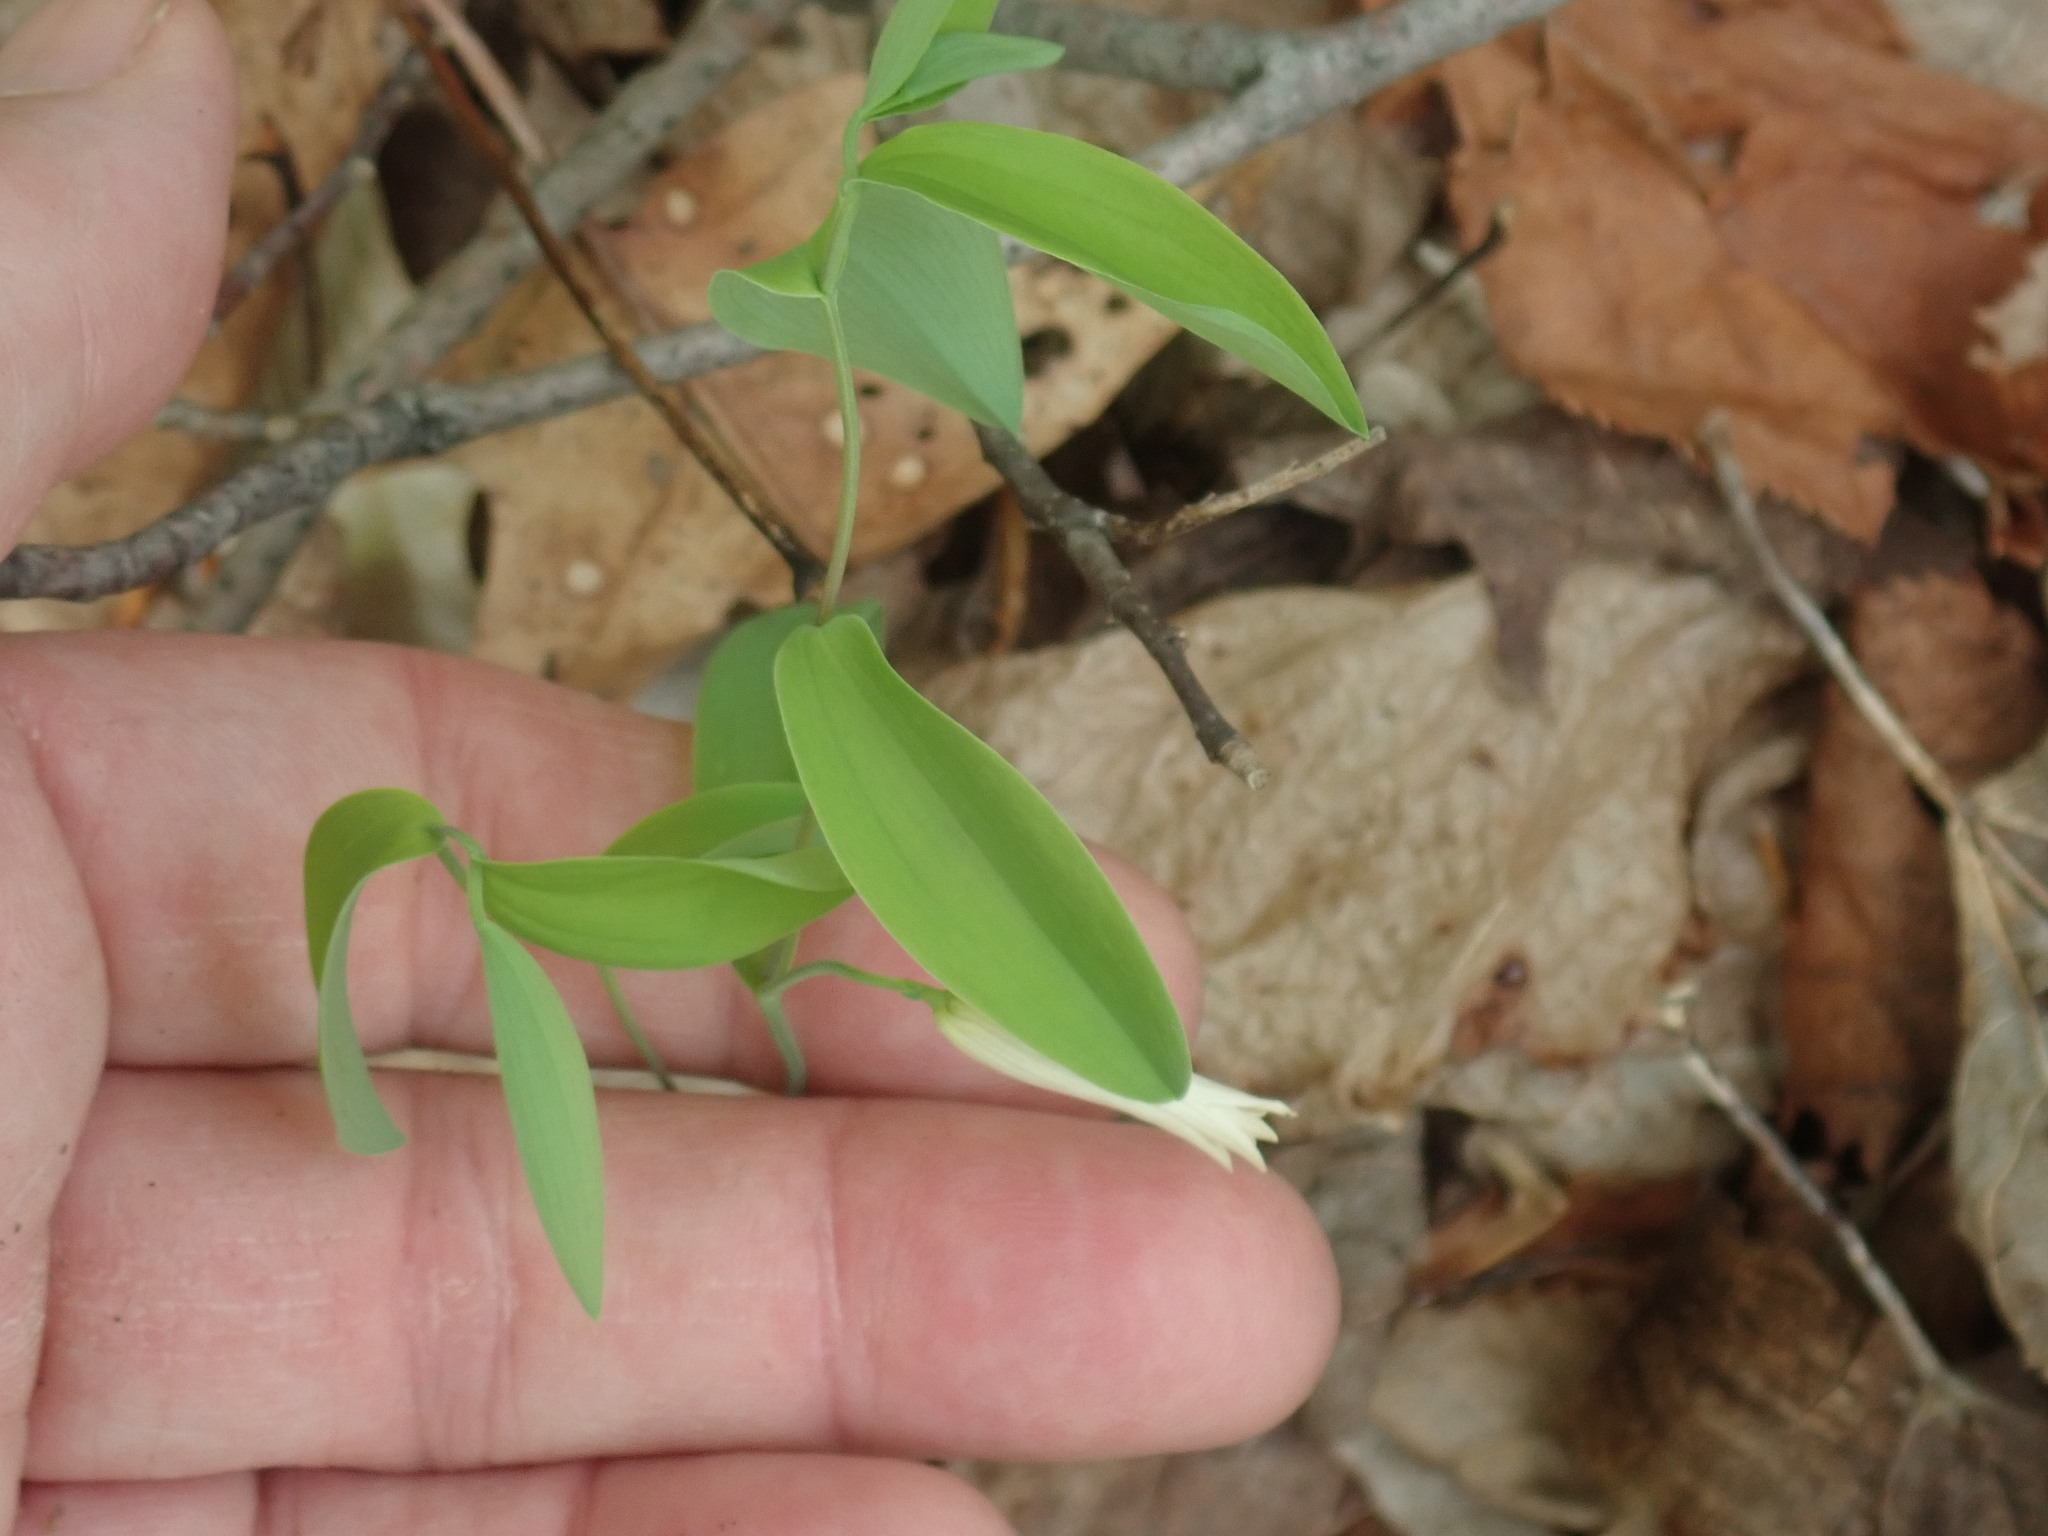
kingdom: Plantae
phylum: Tracheophyta
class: Liliopsida
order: Liliales
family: Colchicaceae
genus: Uvularia
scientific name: Uvularia sessilifolia
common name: Straw-lily
